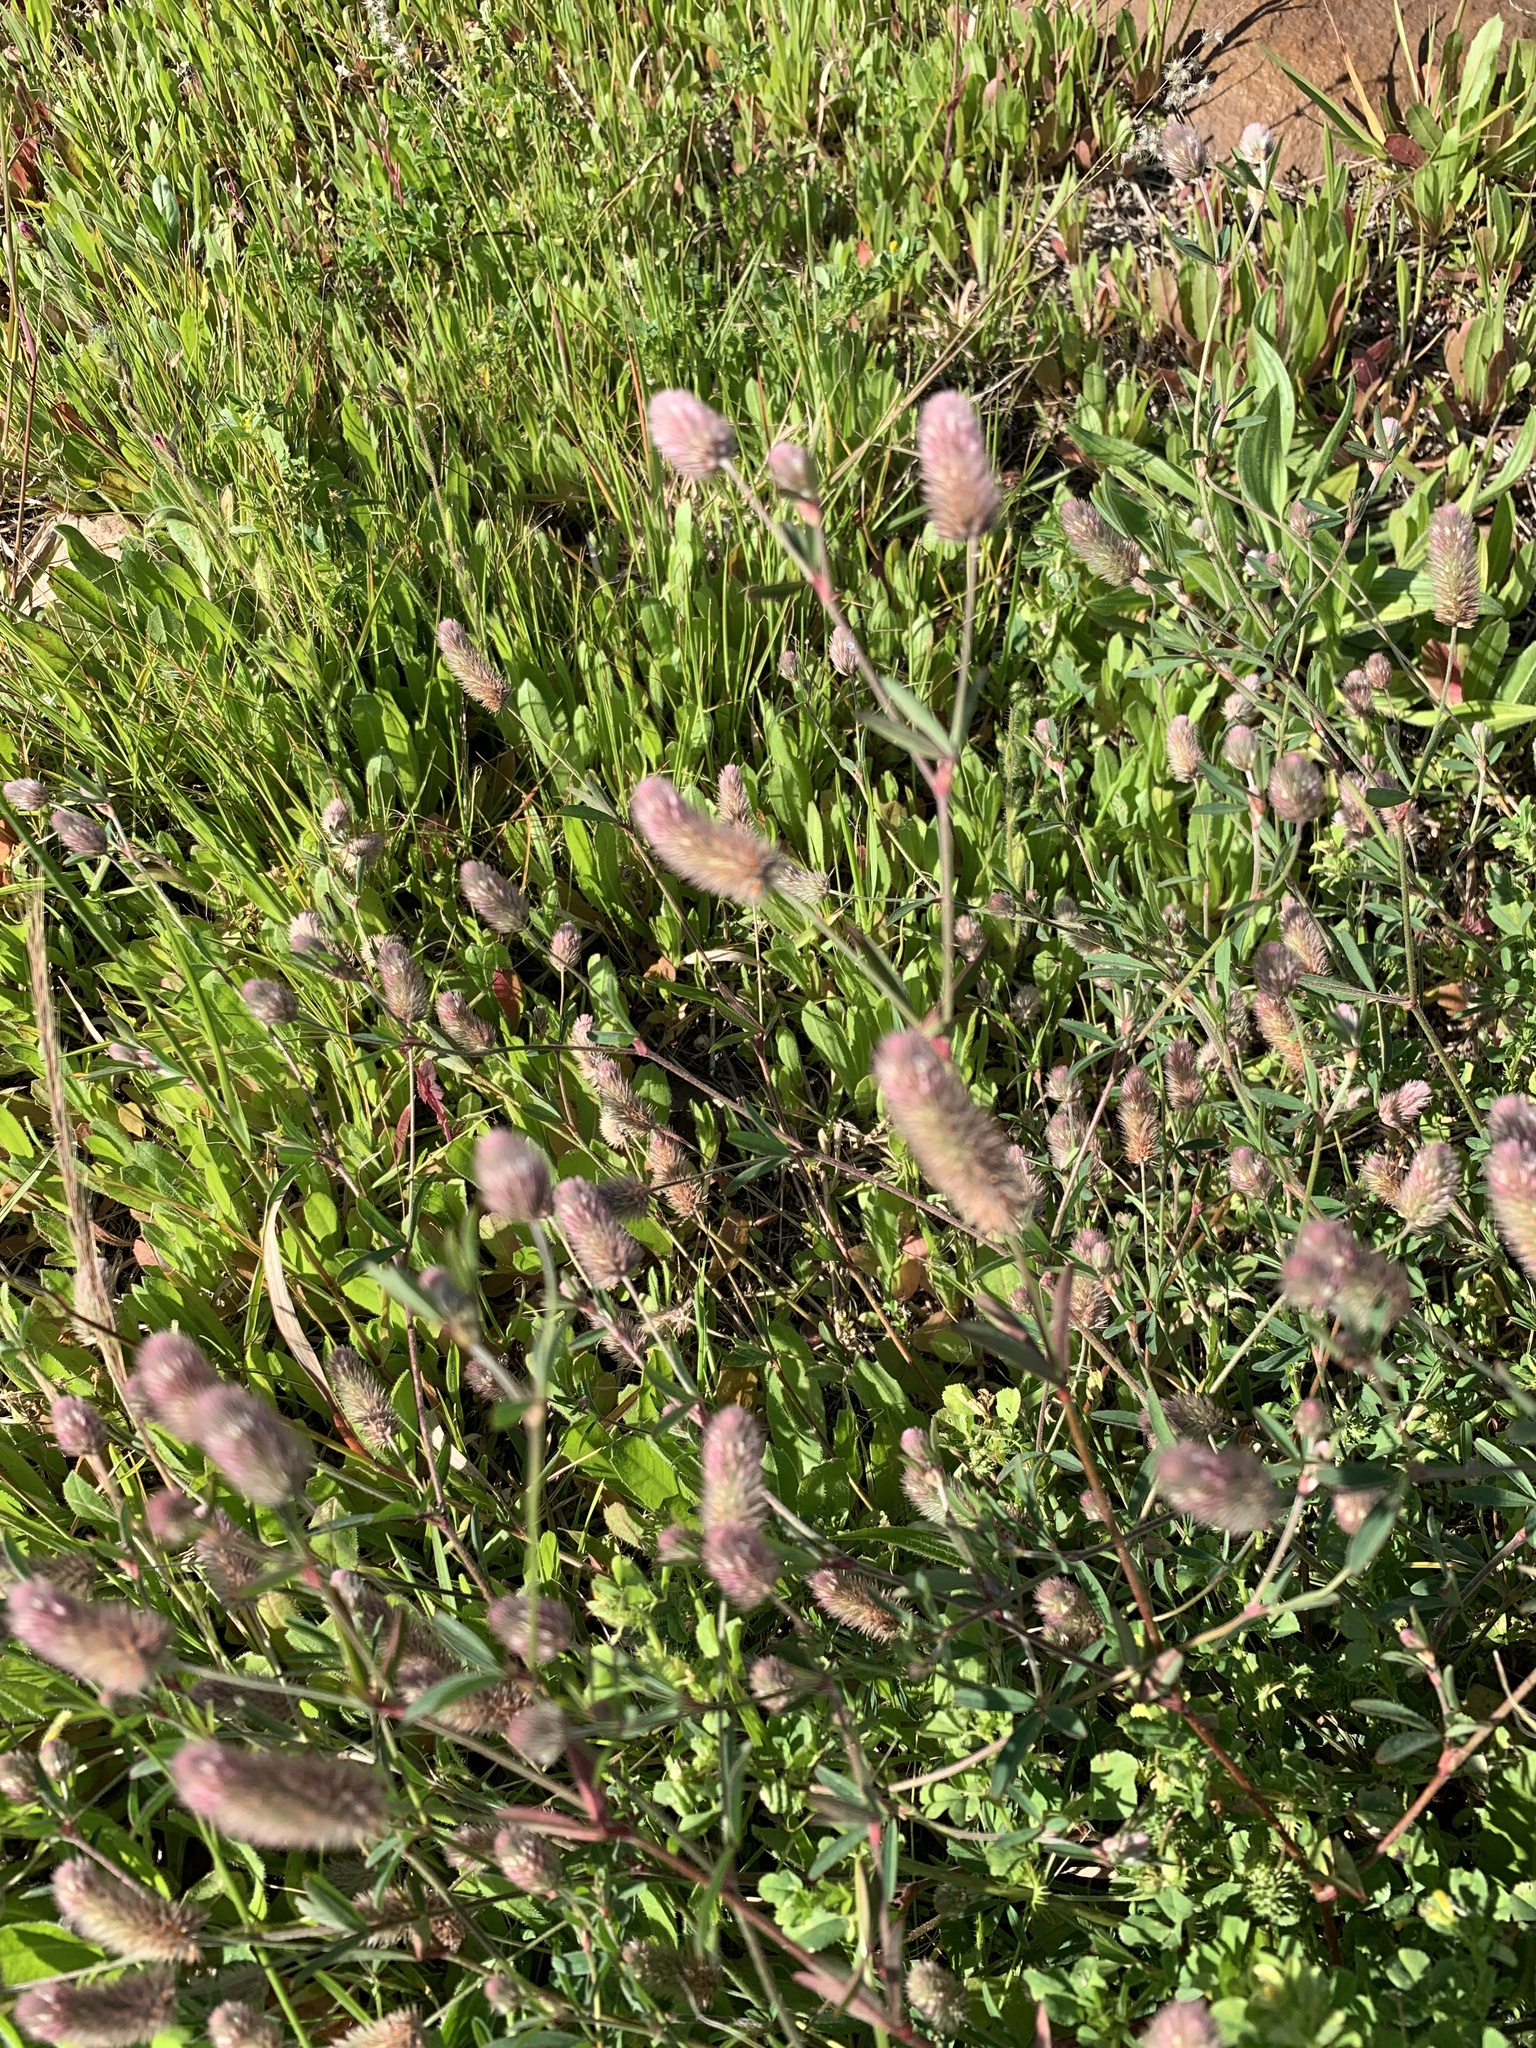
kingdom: Plantae
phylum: Tracheophyta
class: Magnoliopsida
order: Fabales
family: Fabaceae
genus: Trifolium
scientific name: Trifolium arvense
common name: Hare's-foot clover
